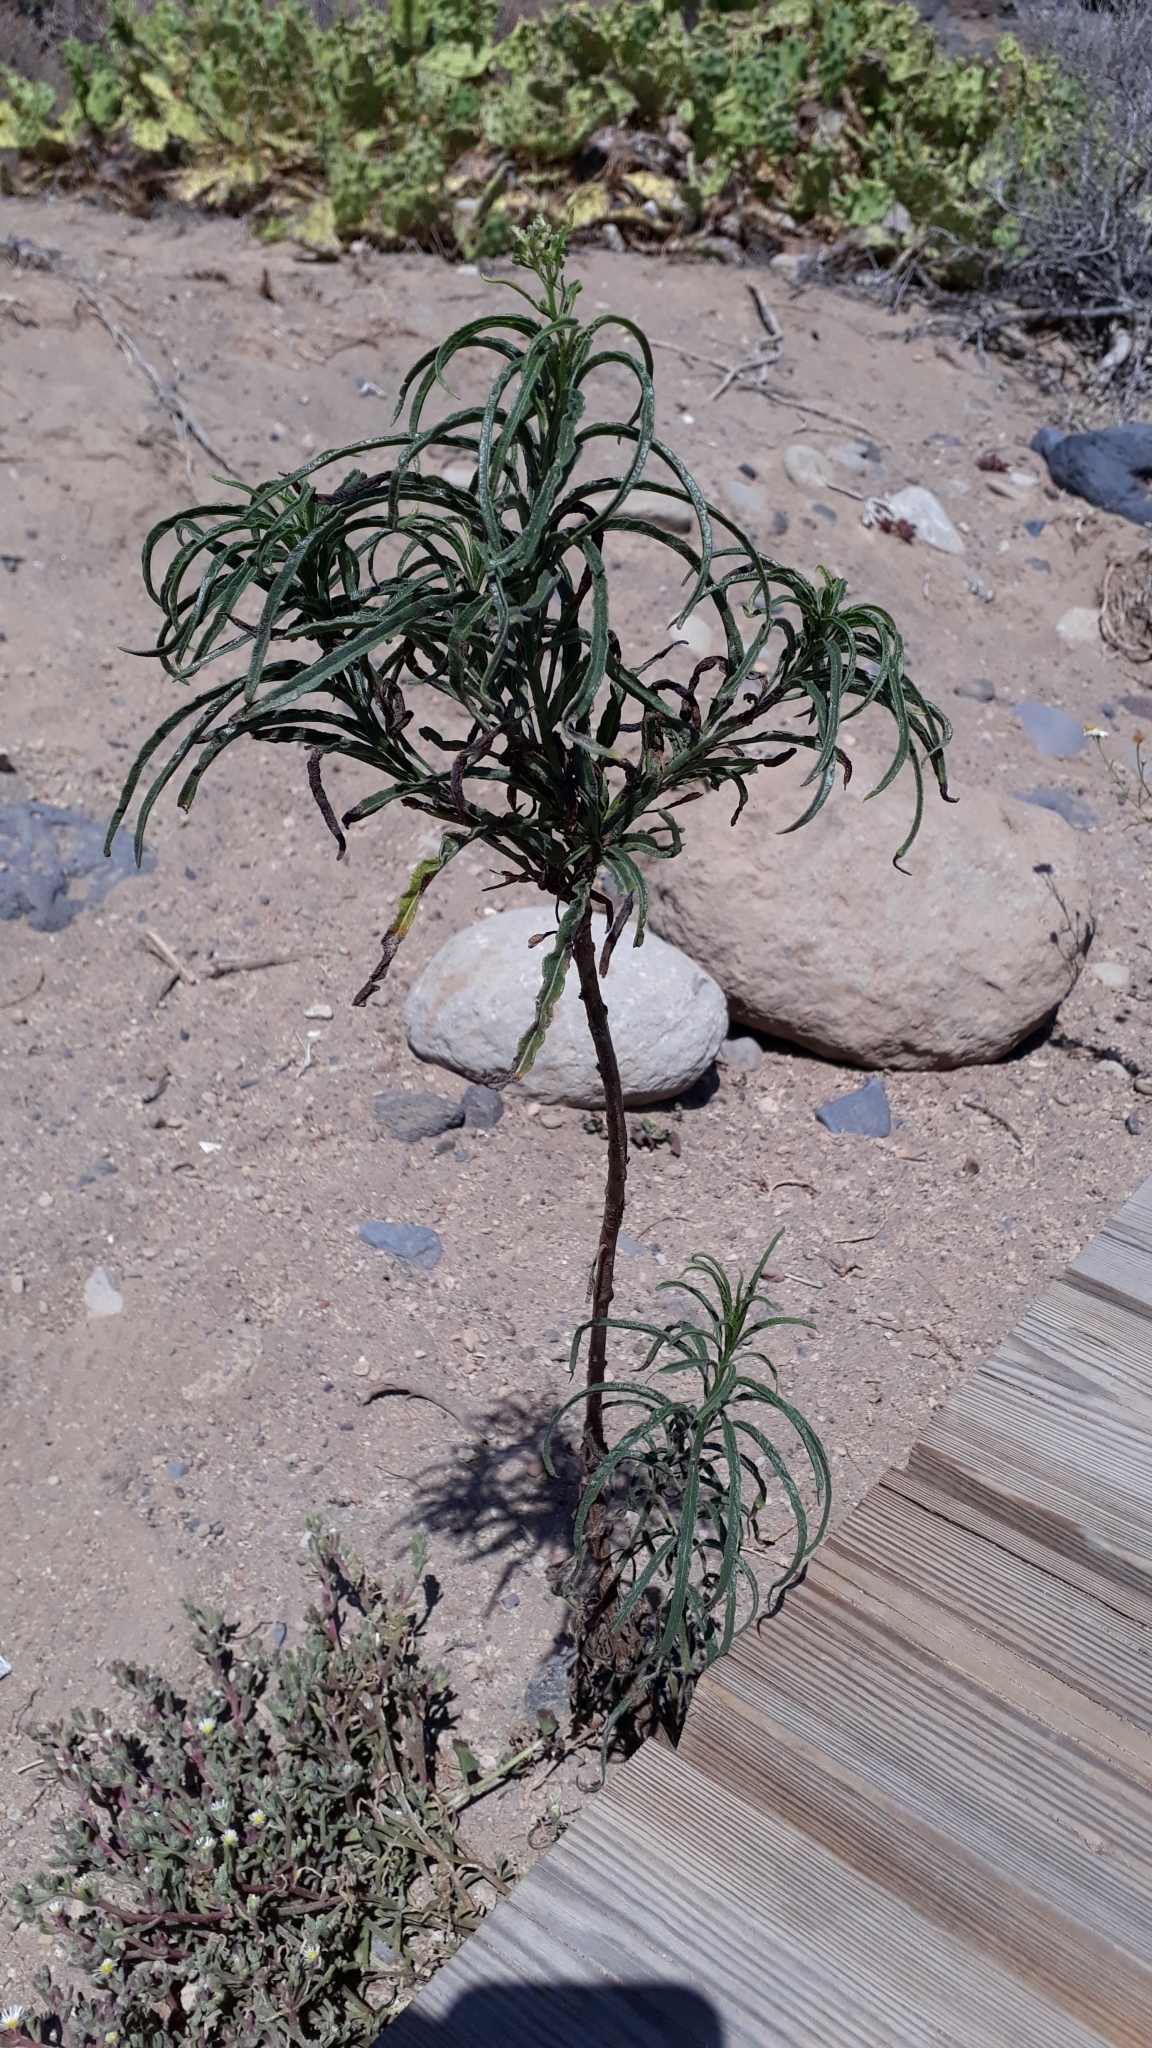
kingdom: Plantae
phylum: Tracheophyta
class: Magnoliopsida
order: Boraginales
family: Heliotropiaceae
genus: Heliotropium
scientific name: Heliotropium messerschmidioides
